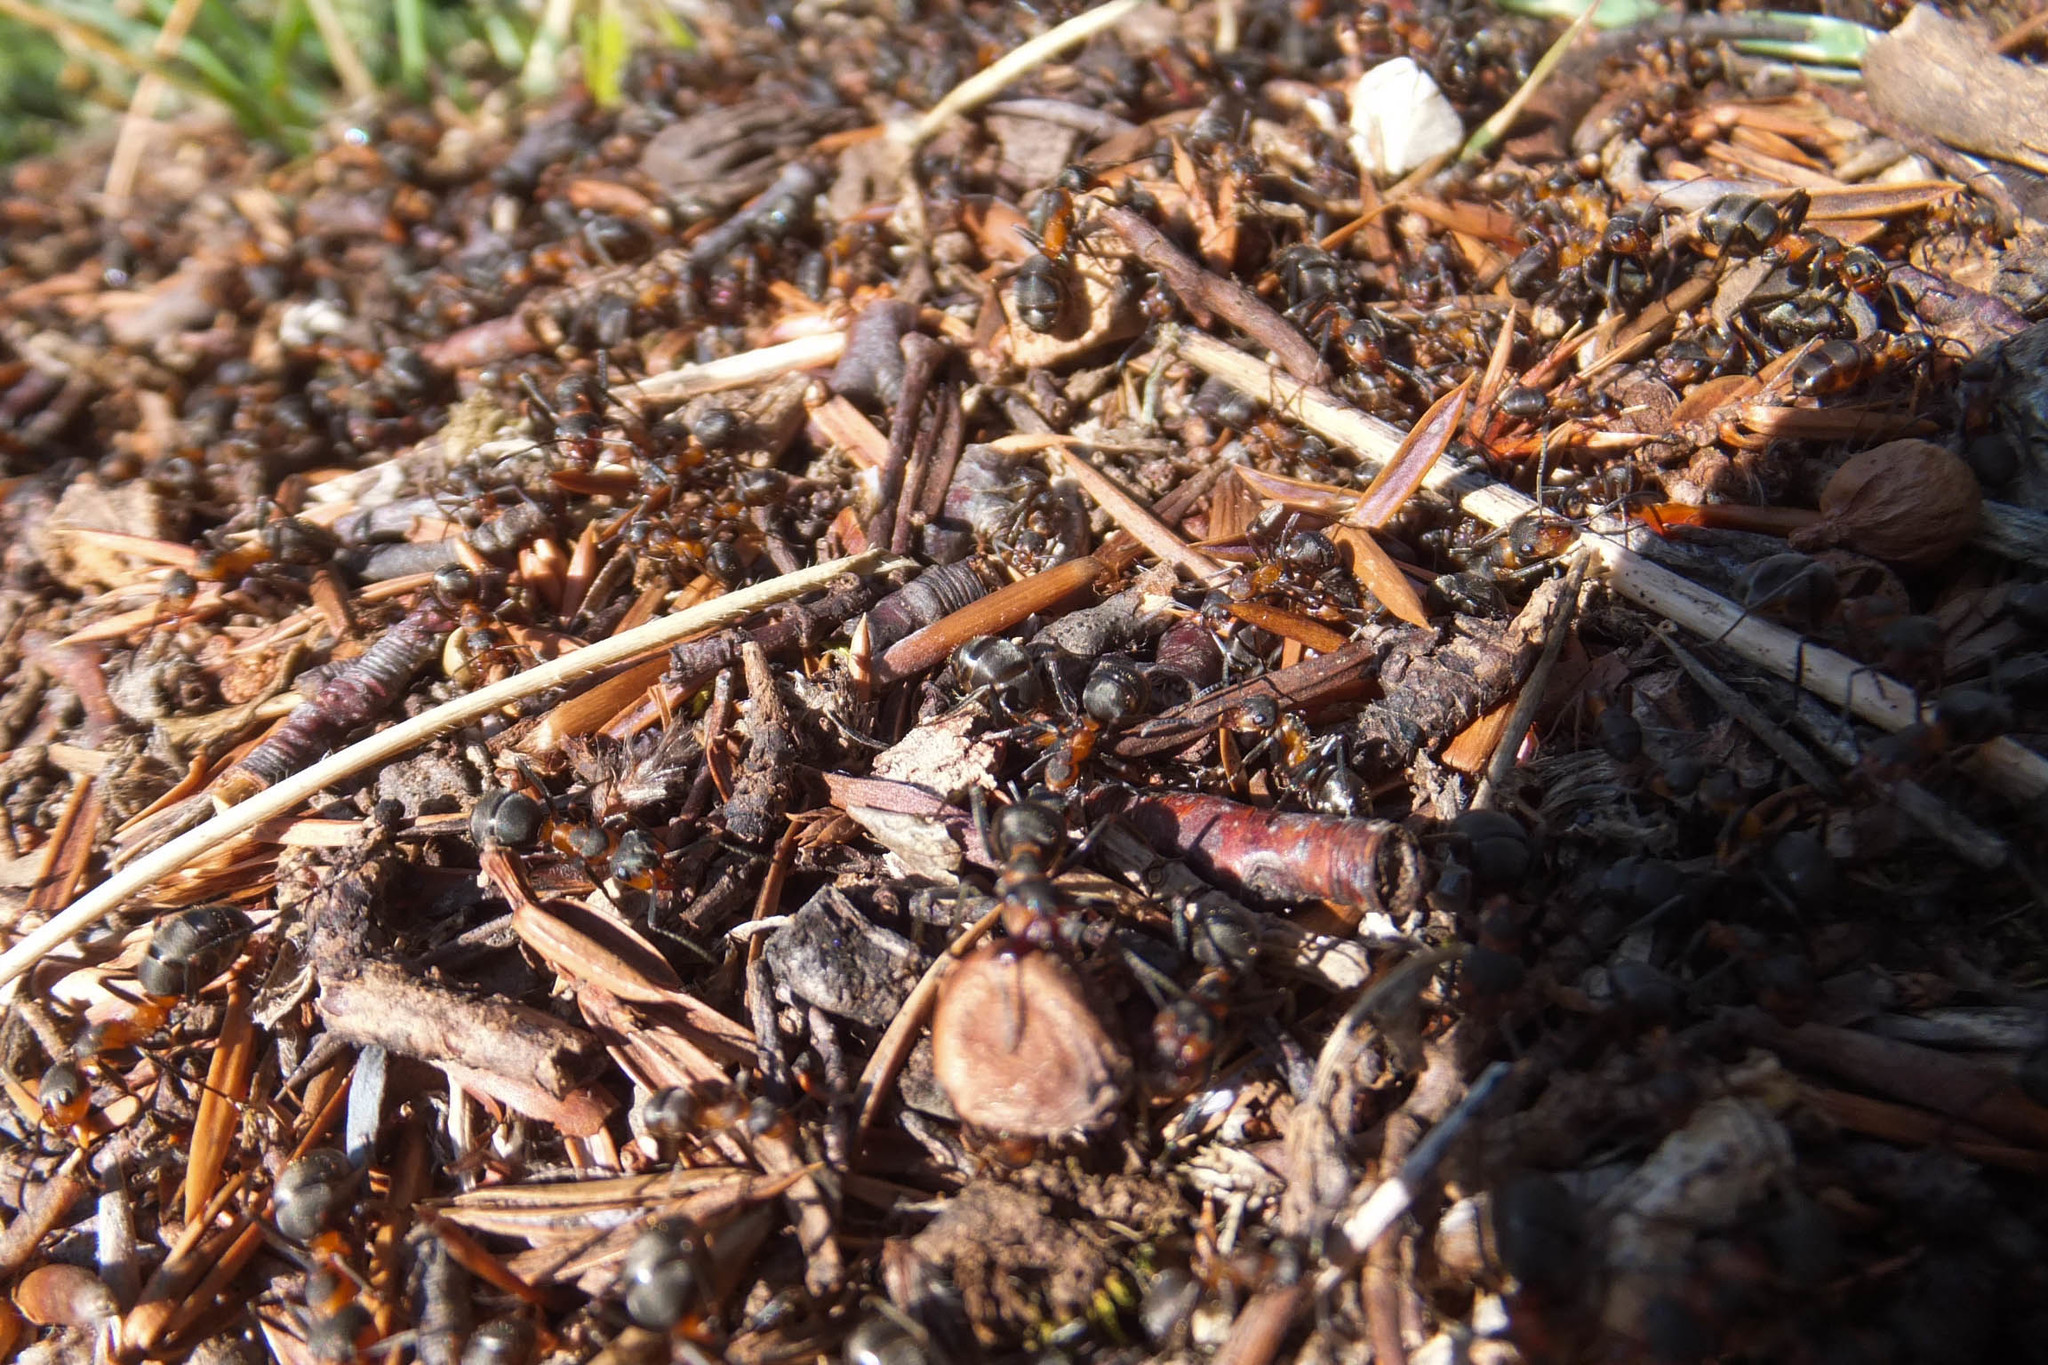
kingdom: Animalia
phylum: Arthropoda
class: Insecta
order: Hymenoptera
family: Formicidae
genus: Formica
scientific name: Formica pratensis
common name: European red wood ant
